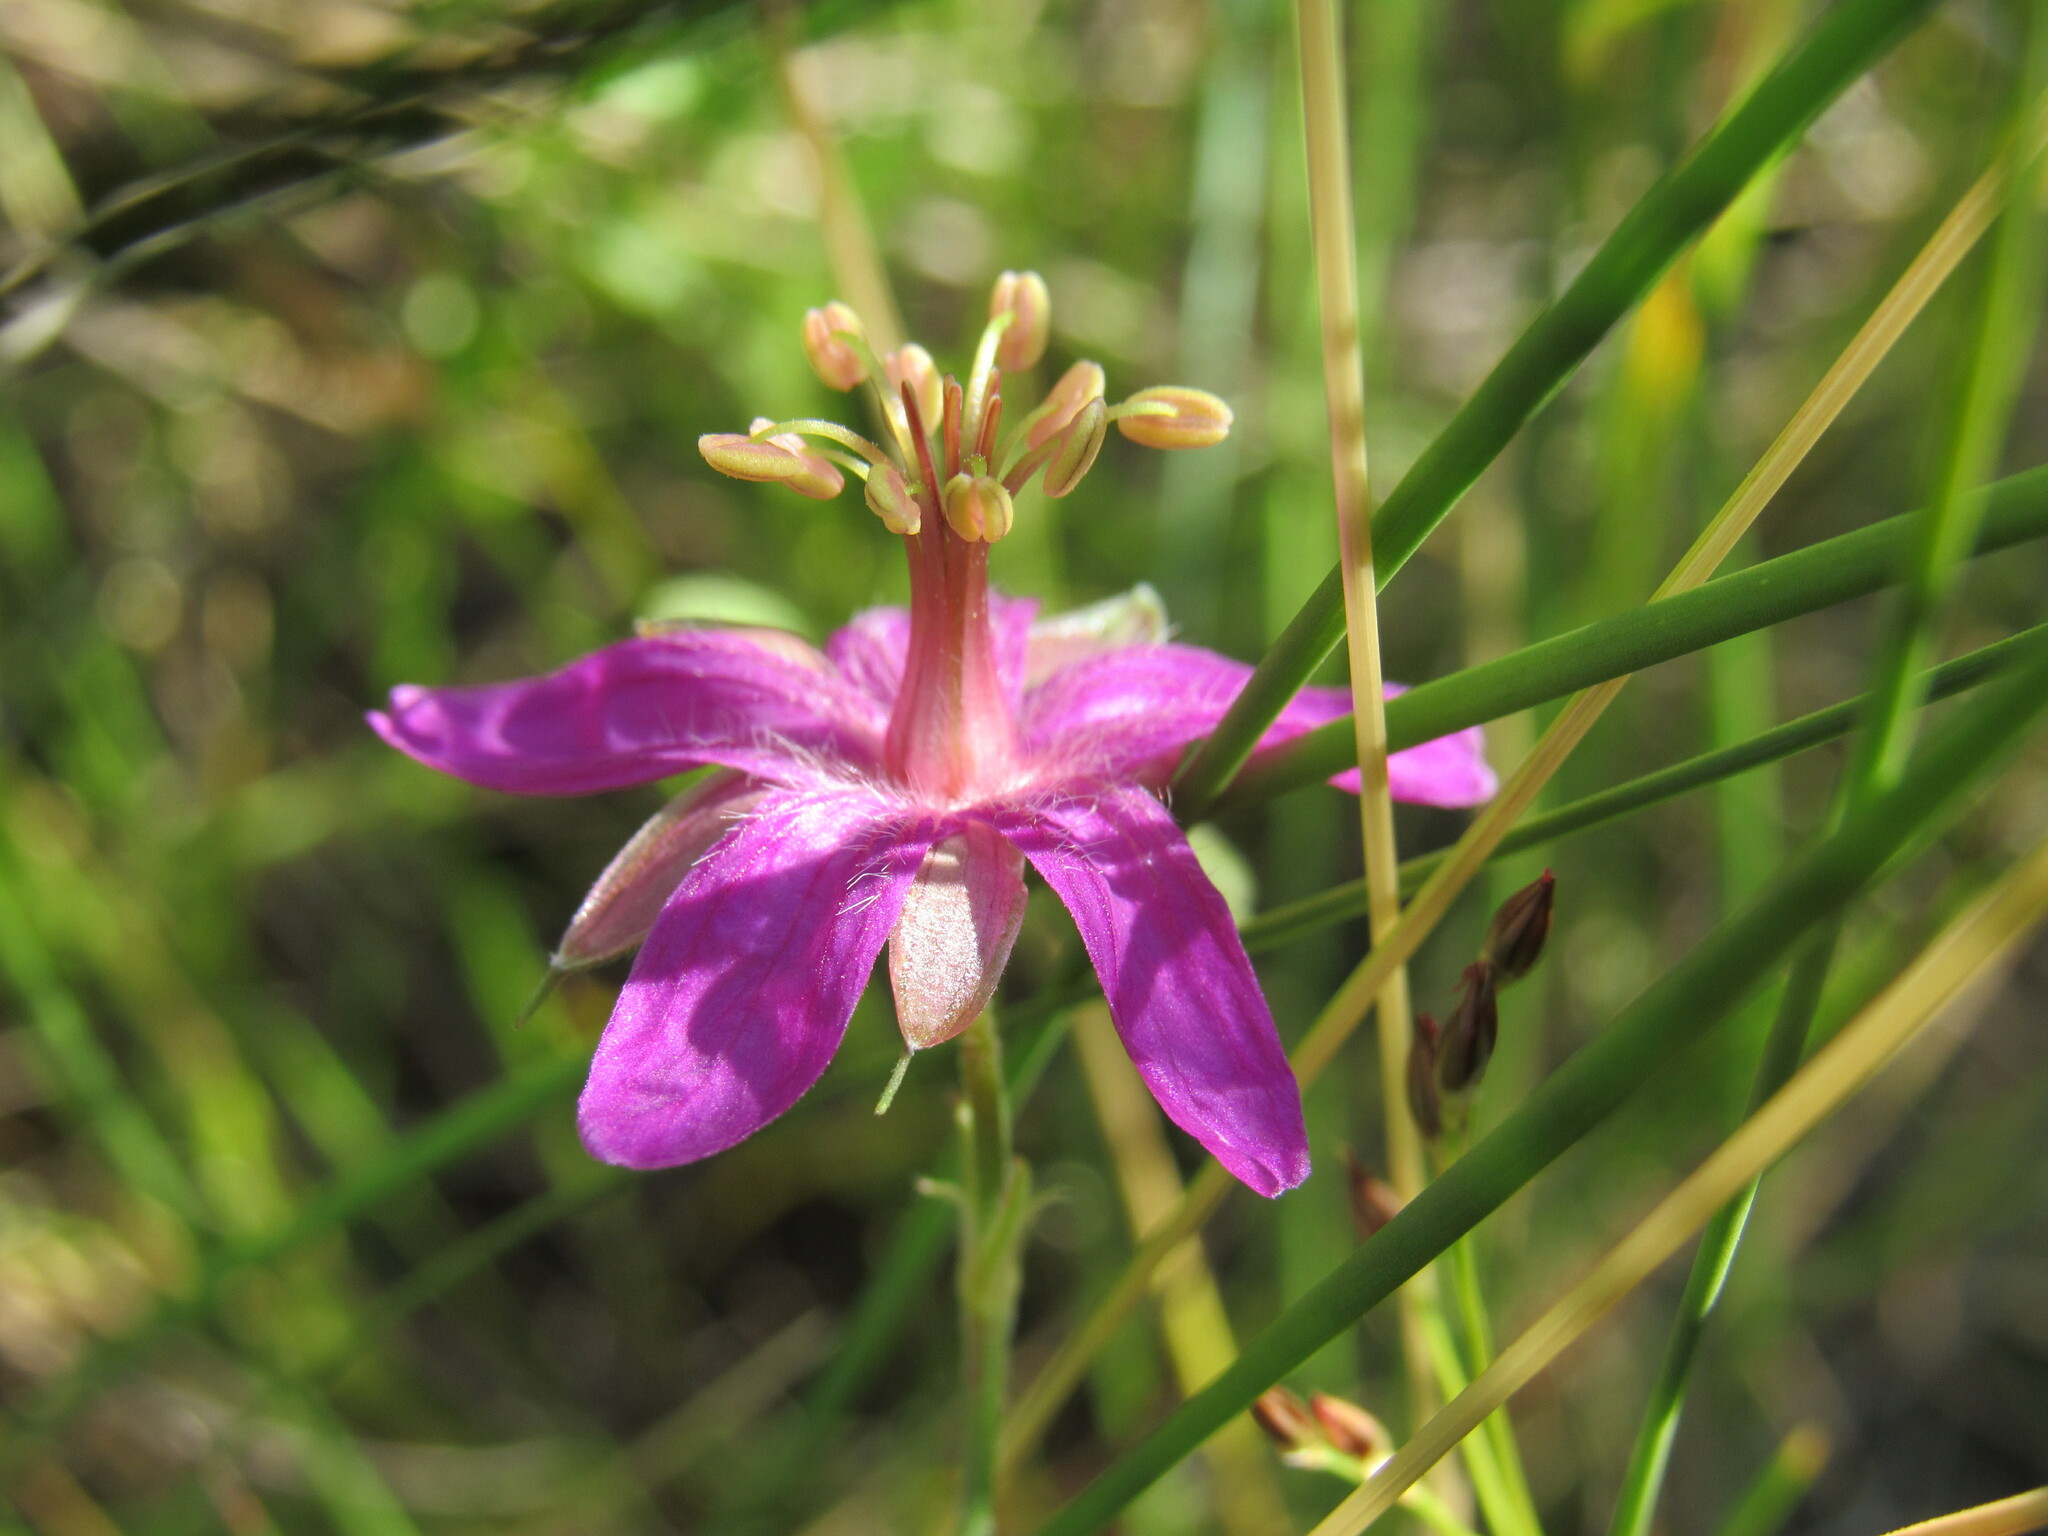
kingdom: Plantae
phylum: Tracheophyta
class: Magnoliopsida
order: Geraniales
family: Geraniaceae
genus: Geranium
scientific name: Geranium caespitosum
